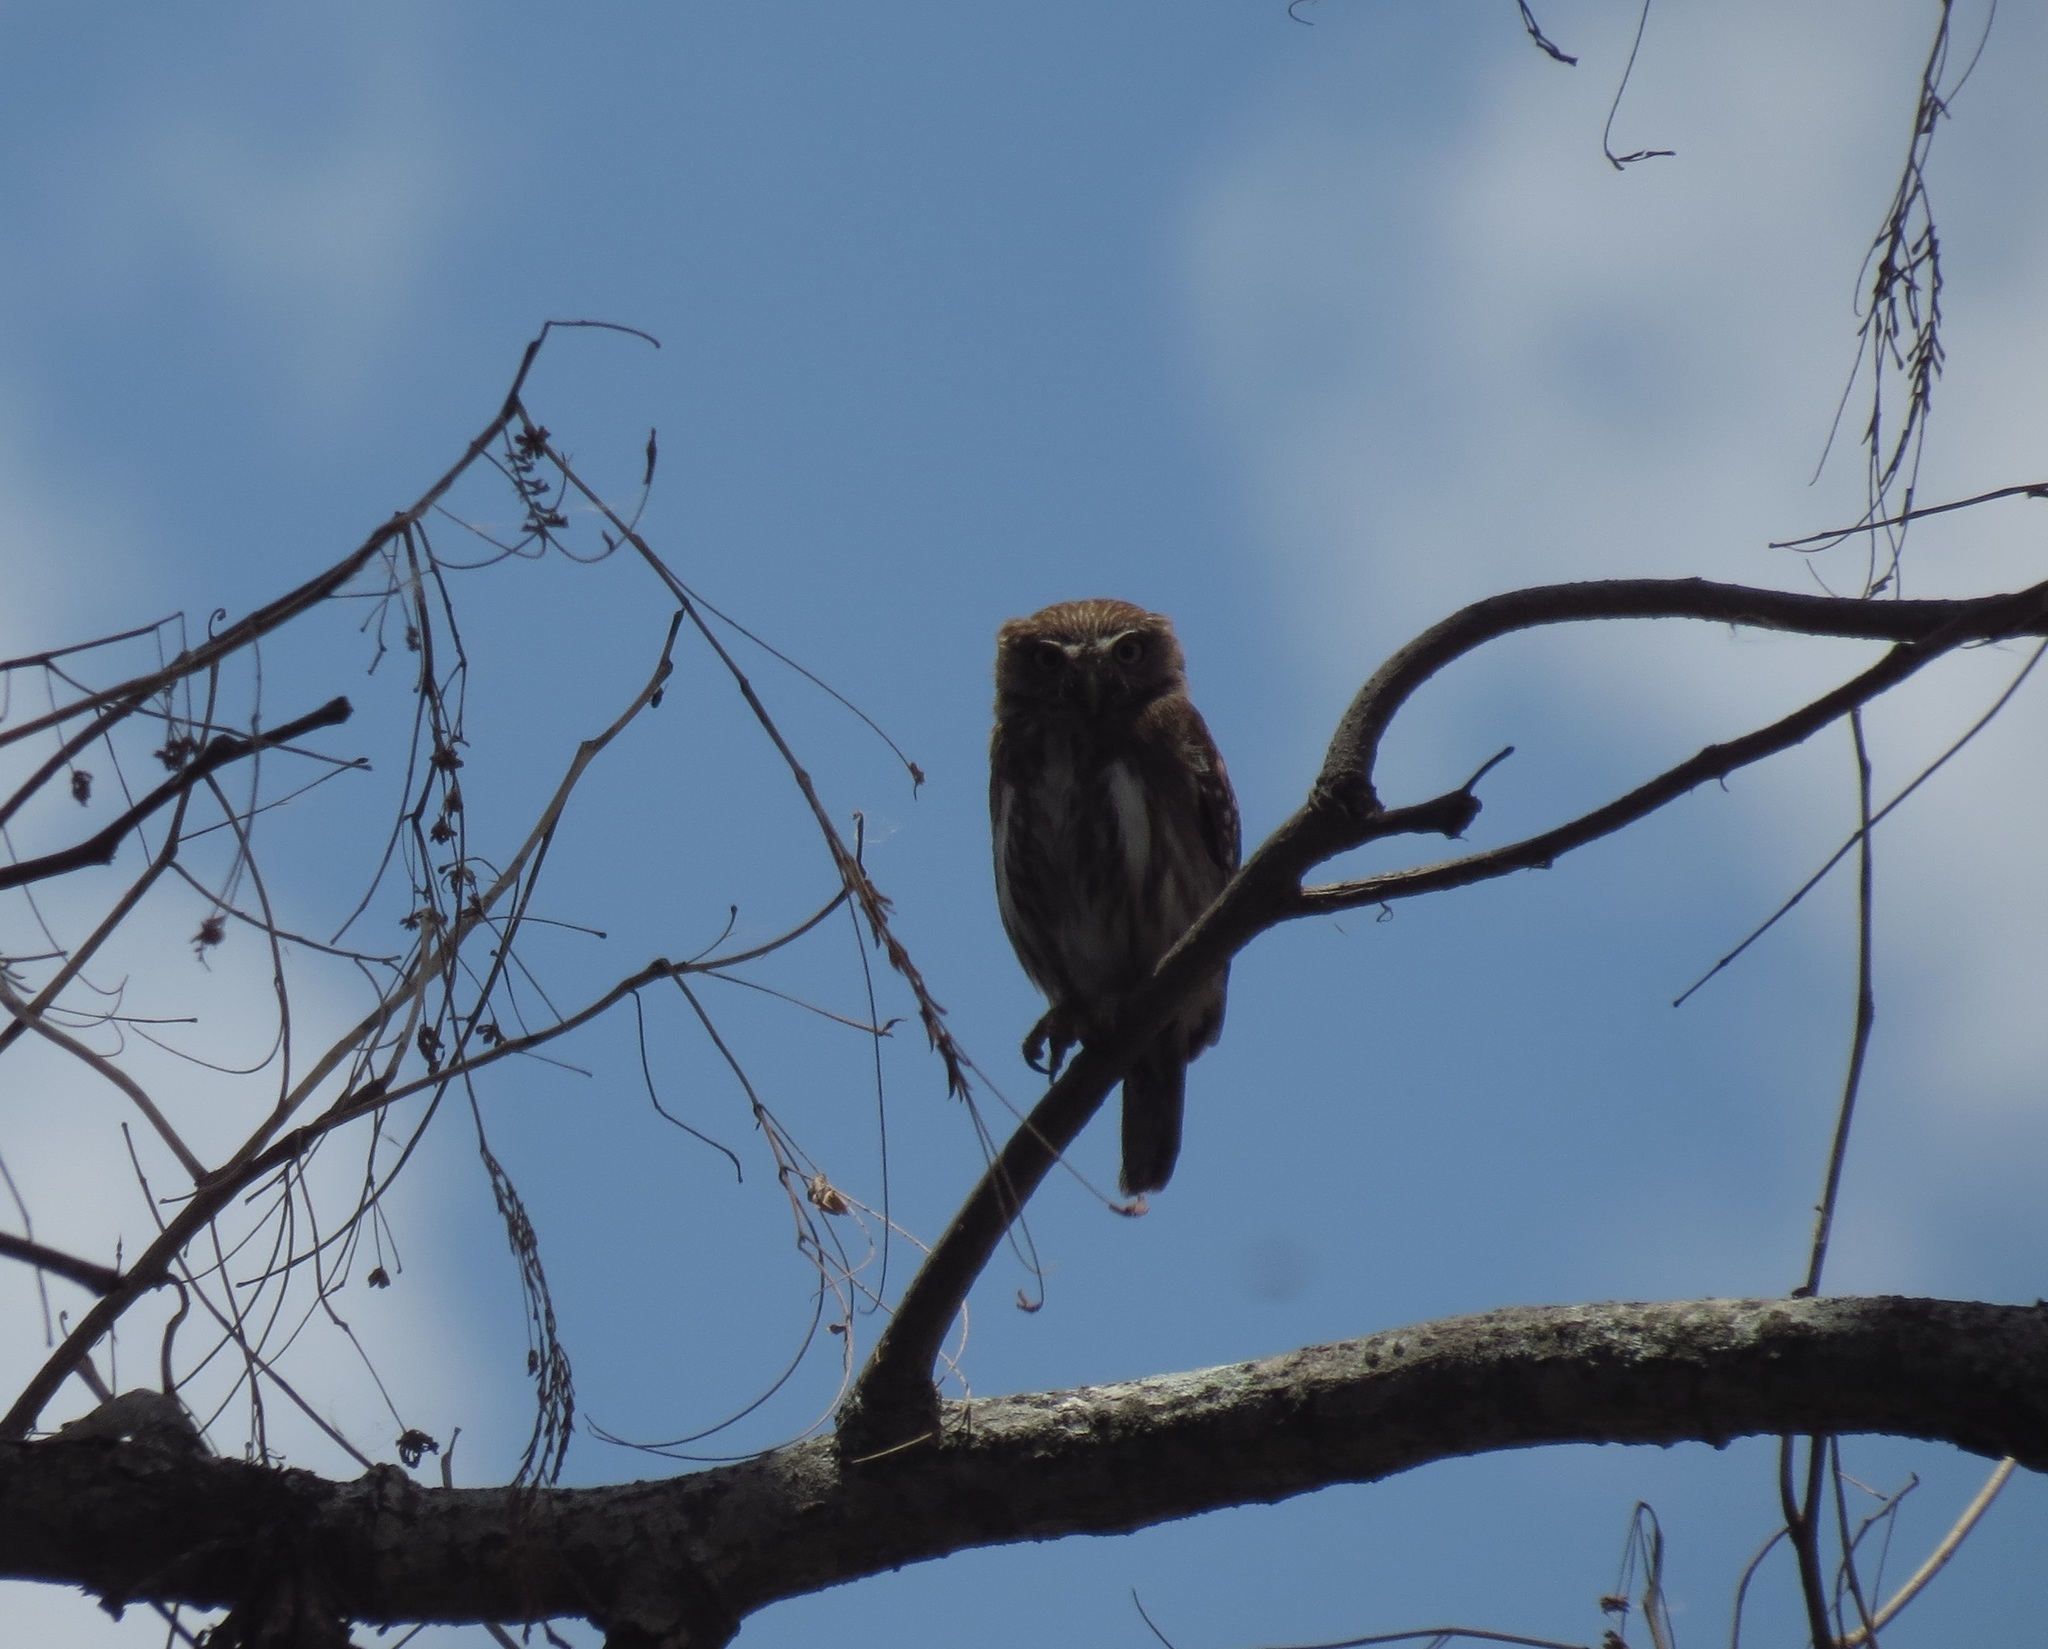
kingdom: Animalia
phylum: Chordata
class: Aves
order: Strigiformes
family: Strigidae
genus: Glaucidium
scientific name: Glaucidium brasilianum
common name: Ferruginous pygmy-owl
